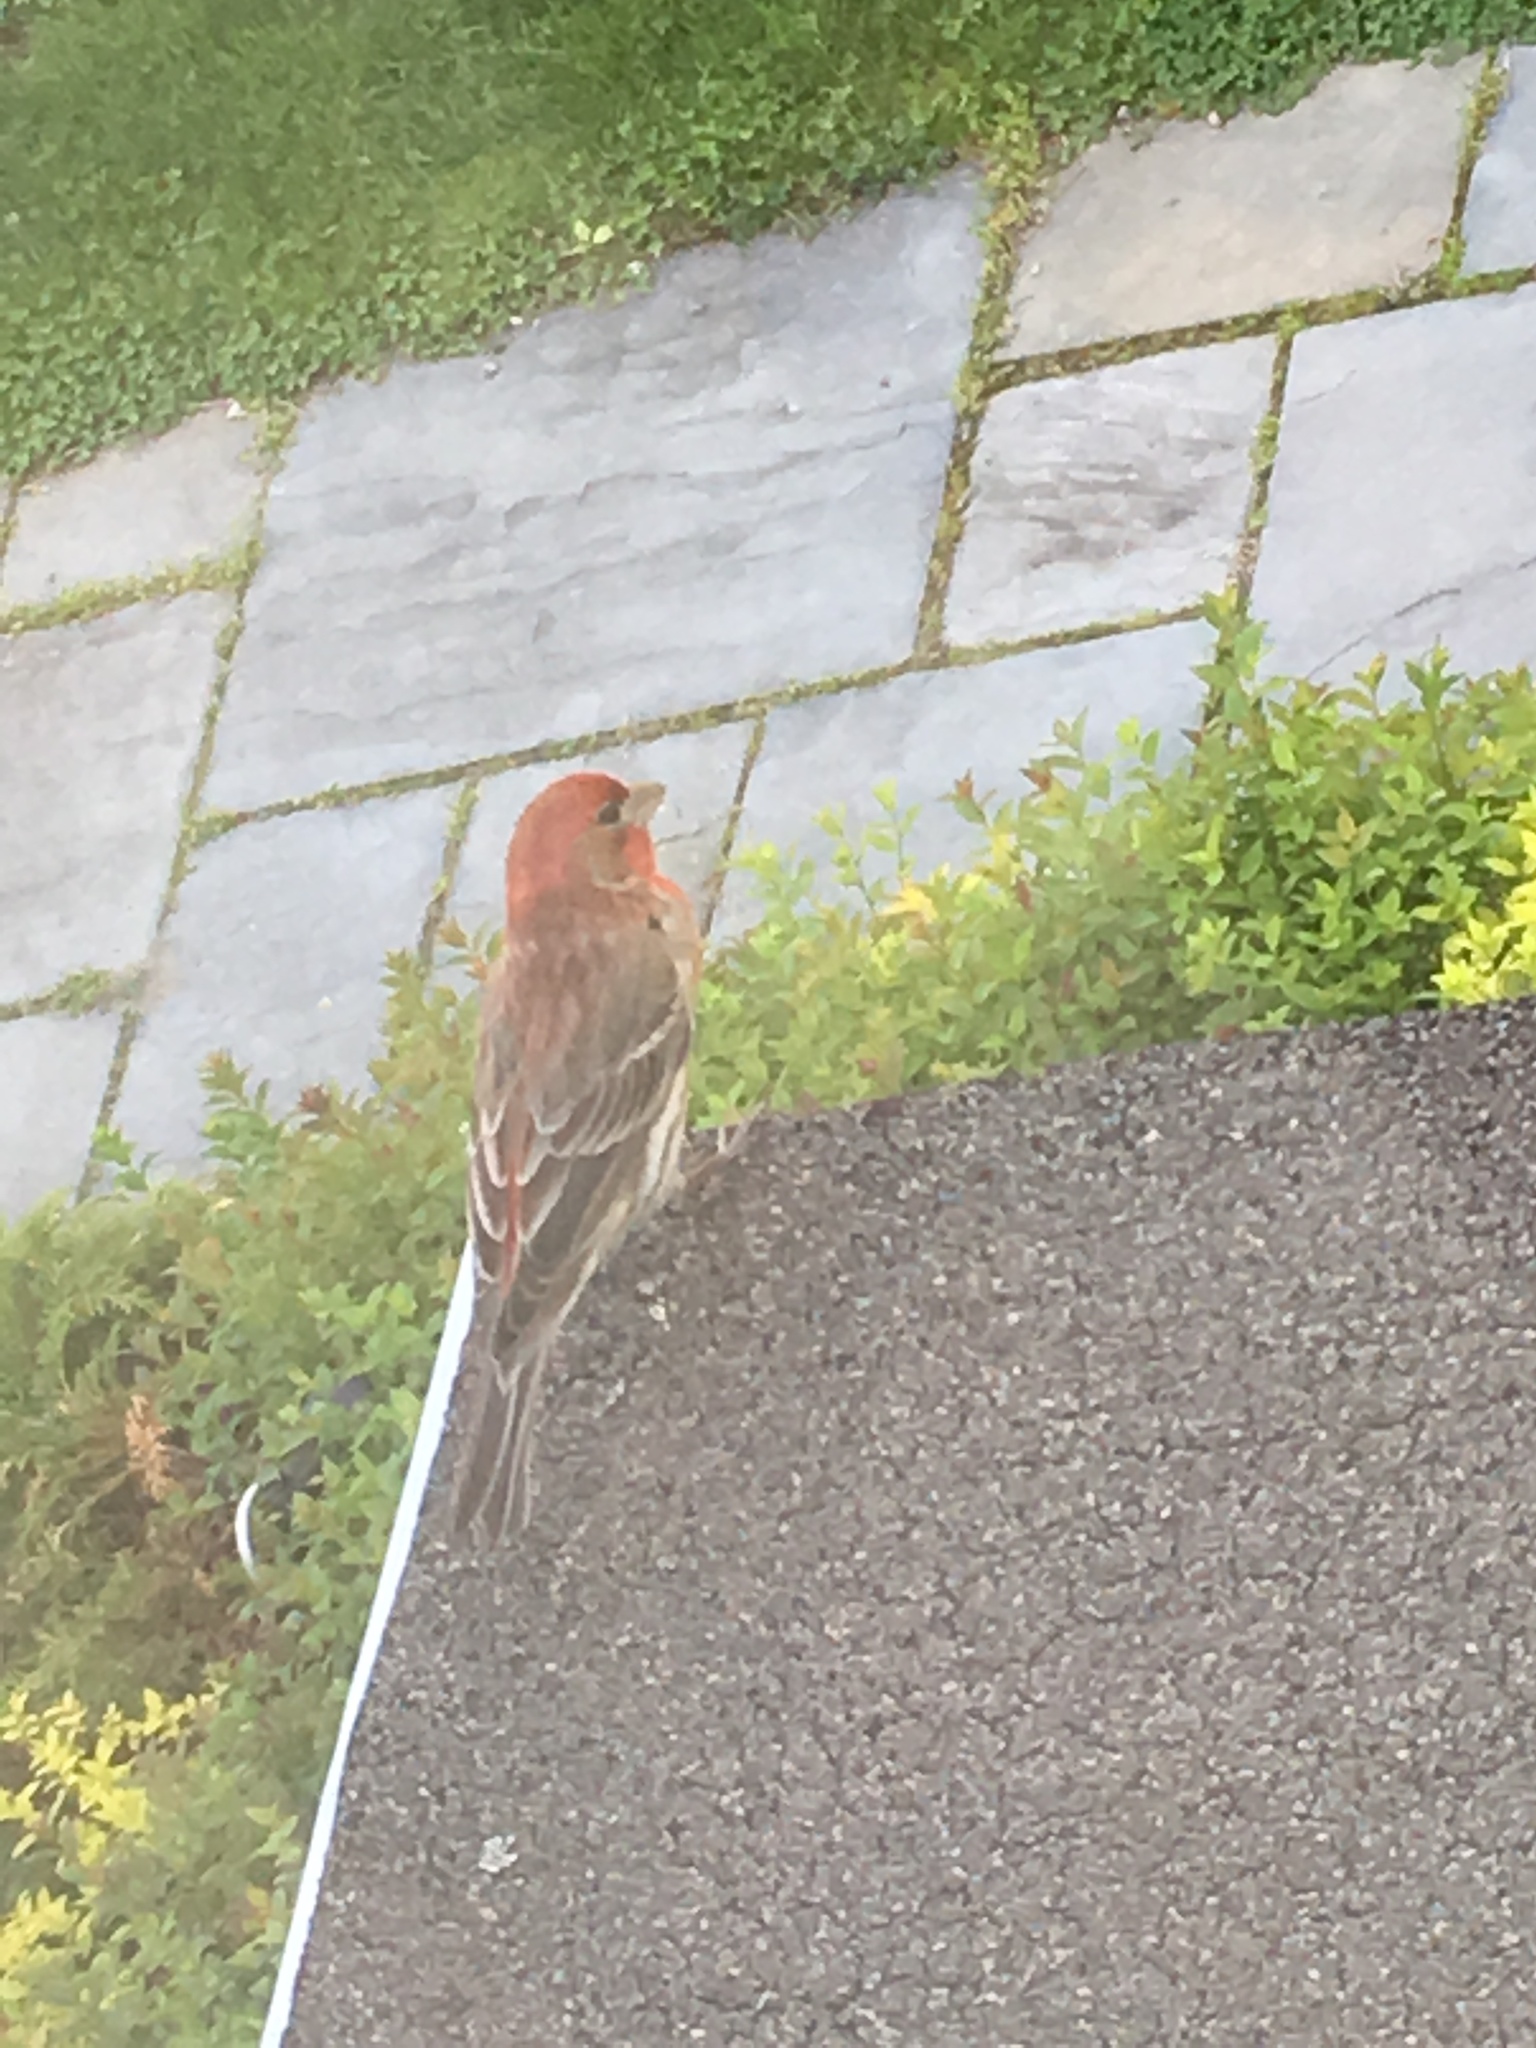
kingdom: Animalia
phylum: Chordata
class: Aves
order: Passeriformes
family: Fringillidae
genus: Haemorhous
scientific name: Haemorhous mexicanus
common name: House finch
